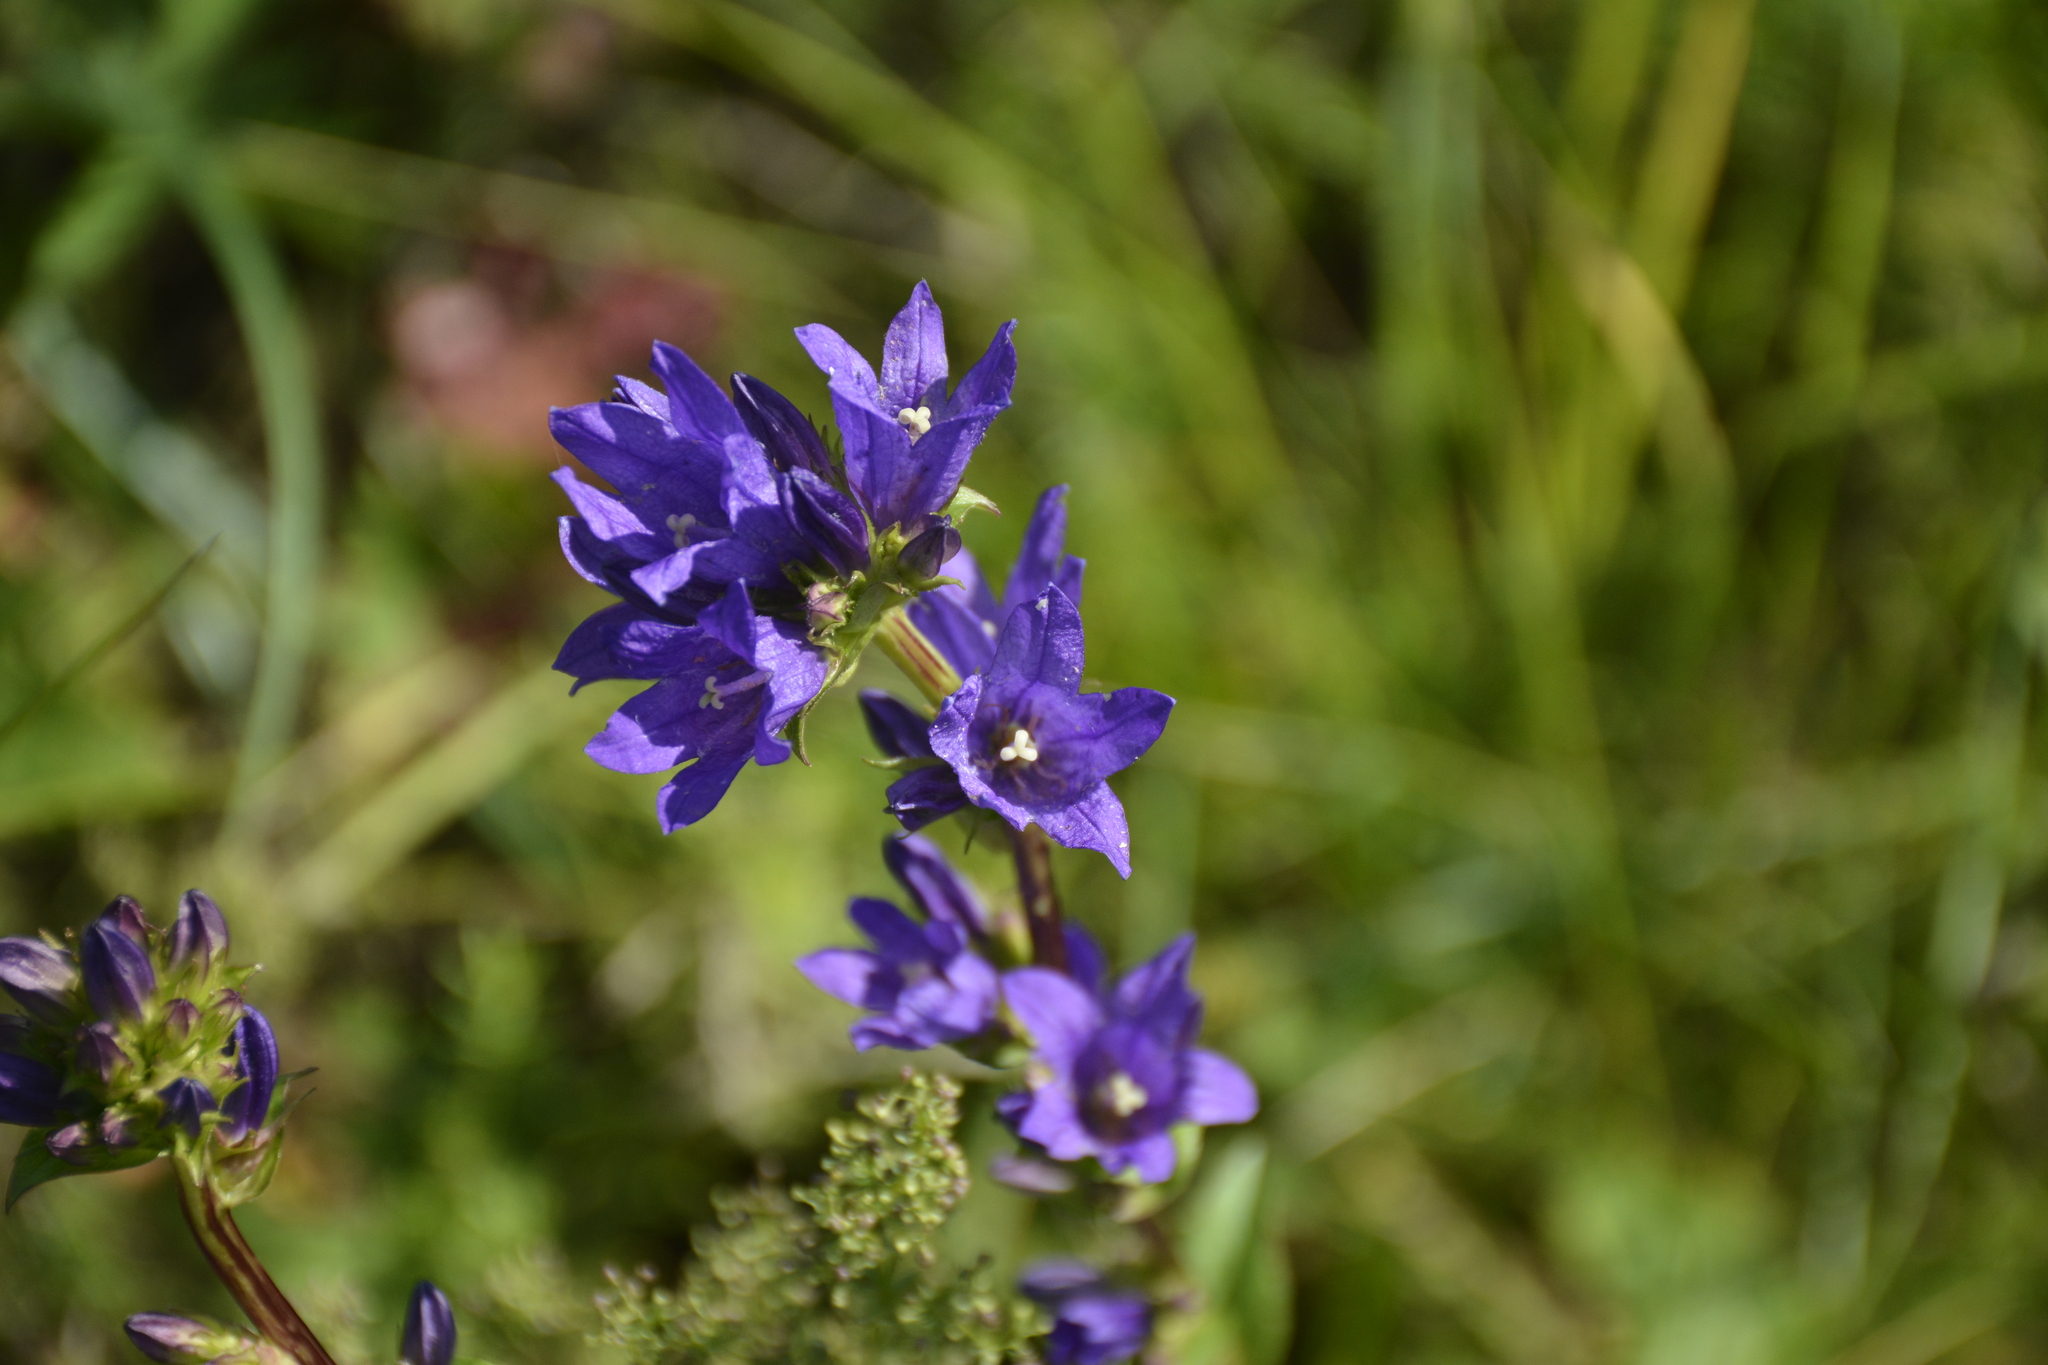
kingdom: Plantae
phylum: Tracheophyta
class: Magnoliopsida
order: Asterales
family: Campanulaceae
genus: Campanula
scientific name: Campanula glomerata
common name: Clustered bellflower
